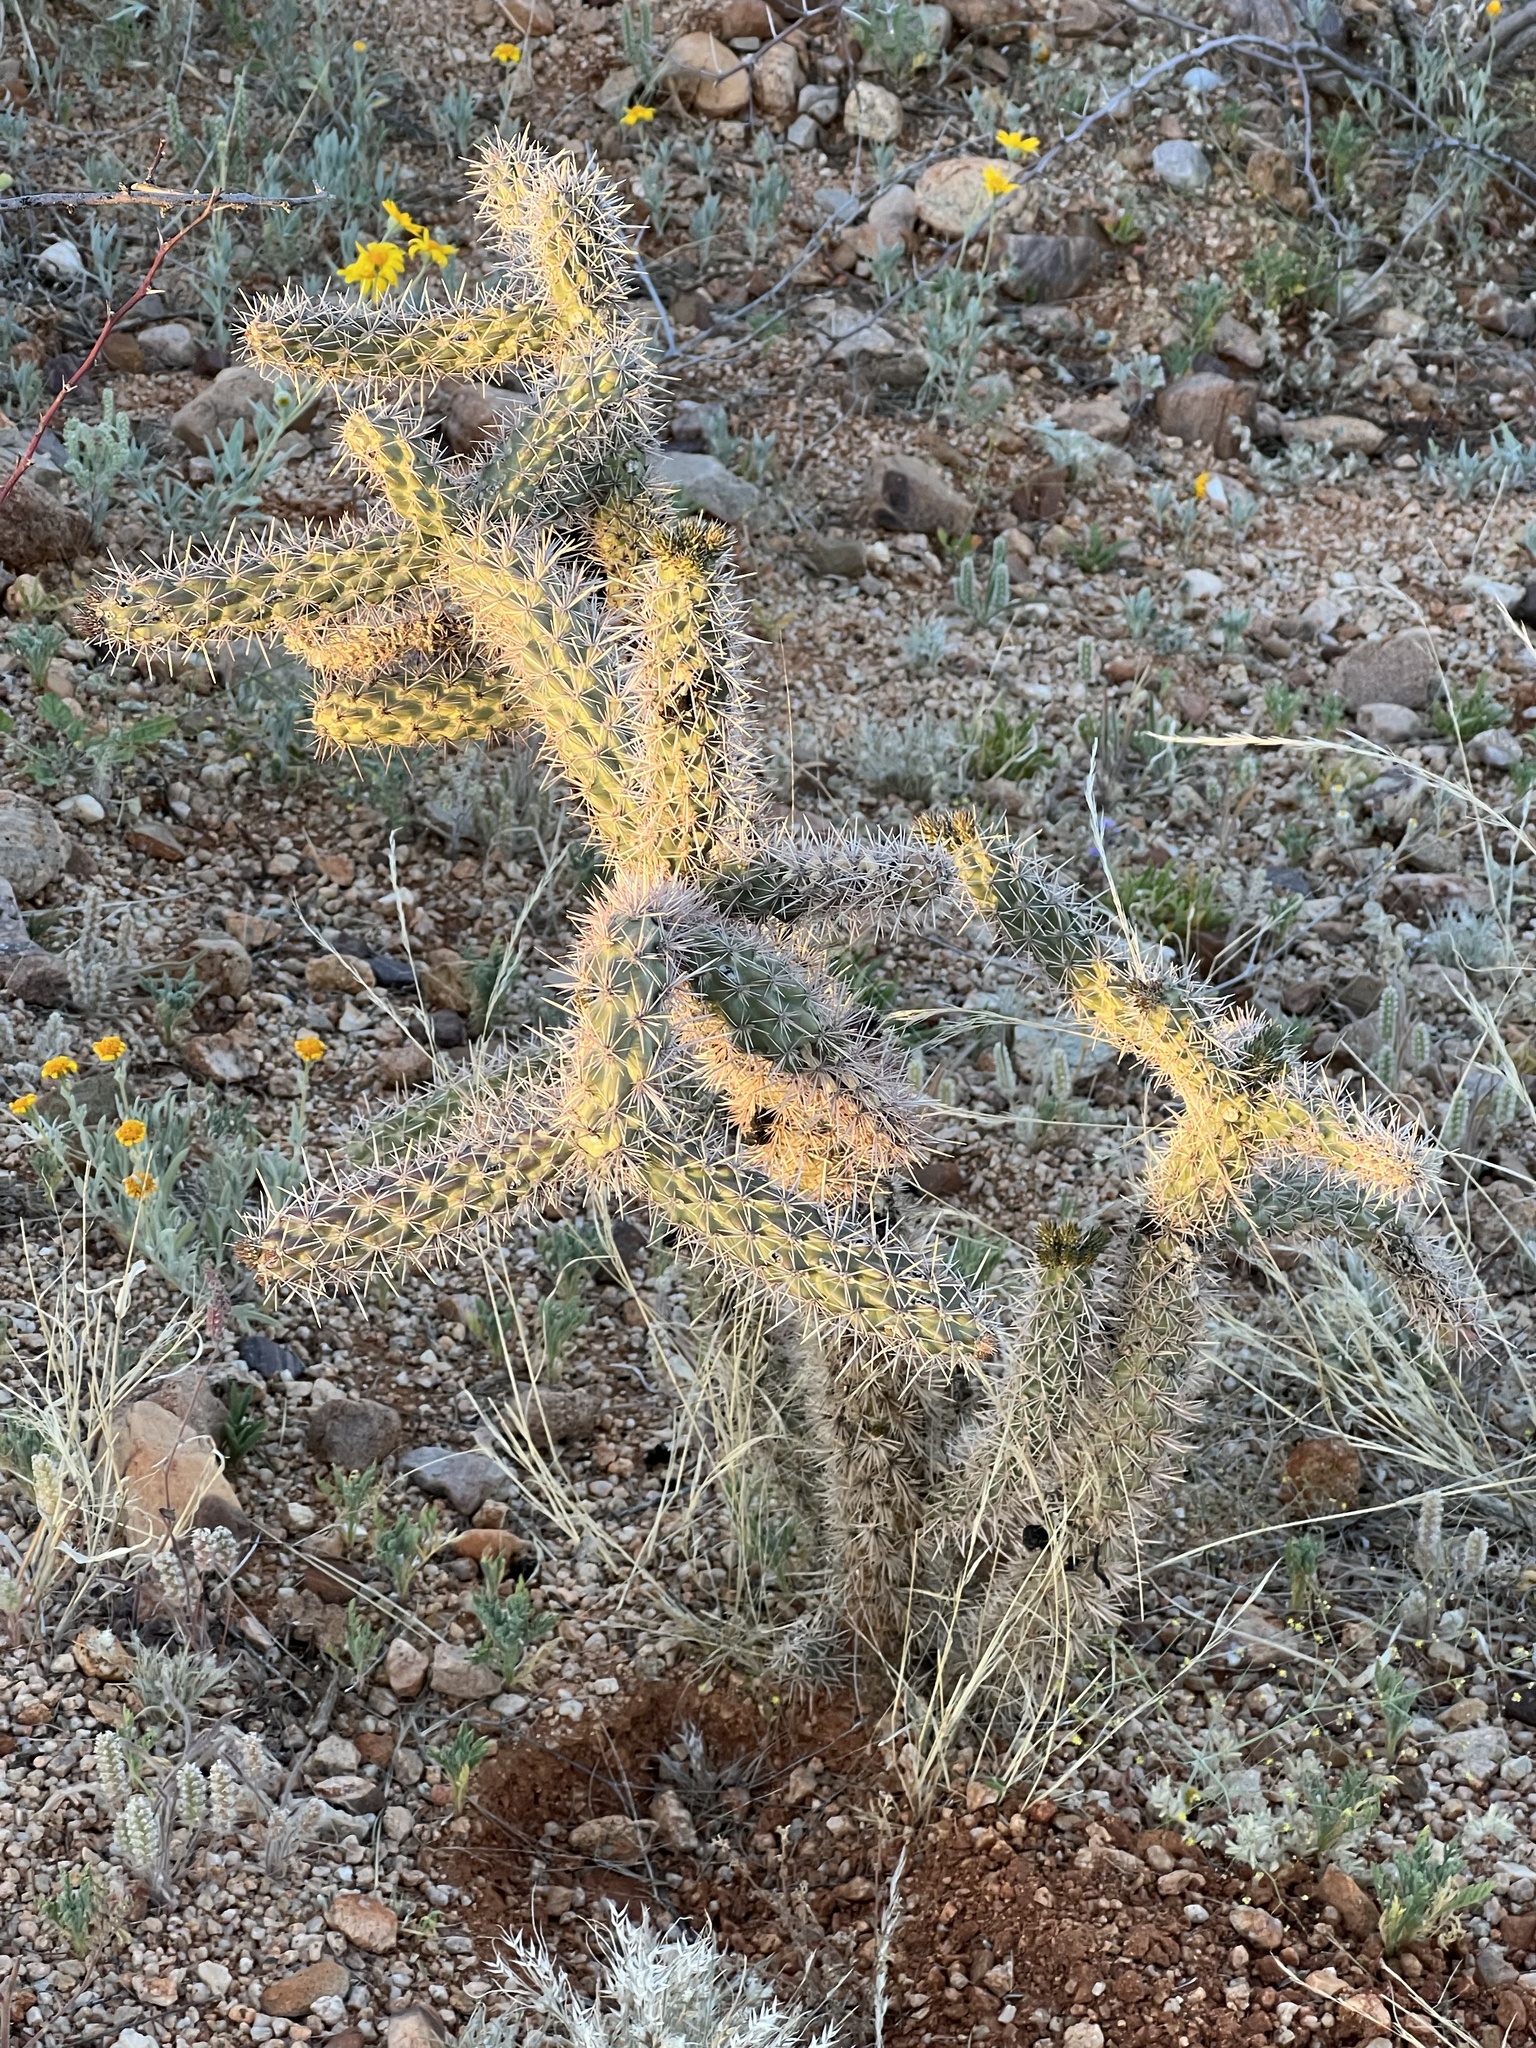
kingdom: Plantae
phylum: Tracheophyta
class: Magnoliopsida
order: Caryophyllales
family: Cactaceae
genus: Cylindropuntia
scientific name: Cylindropuntia imbricata
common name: Candelabrum cactus
